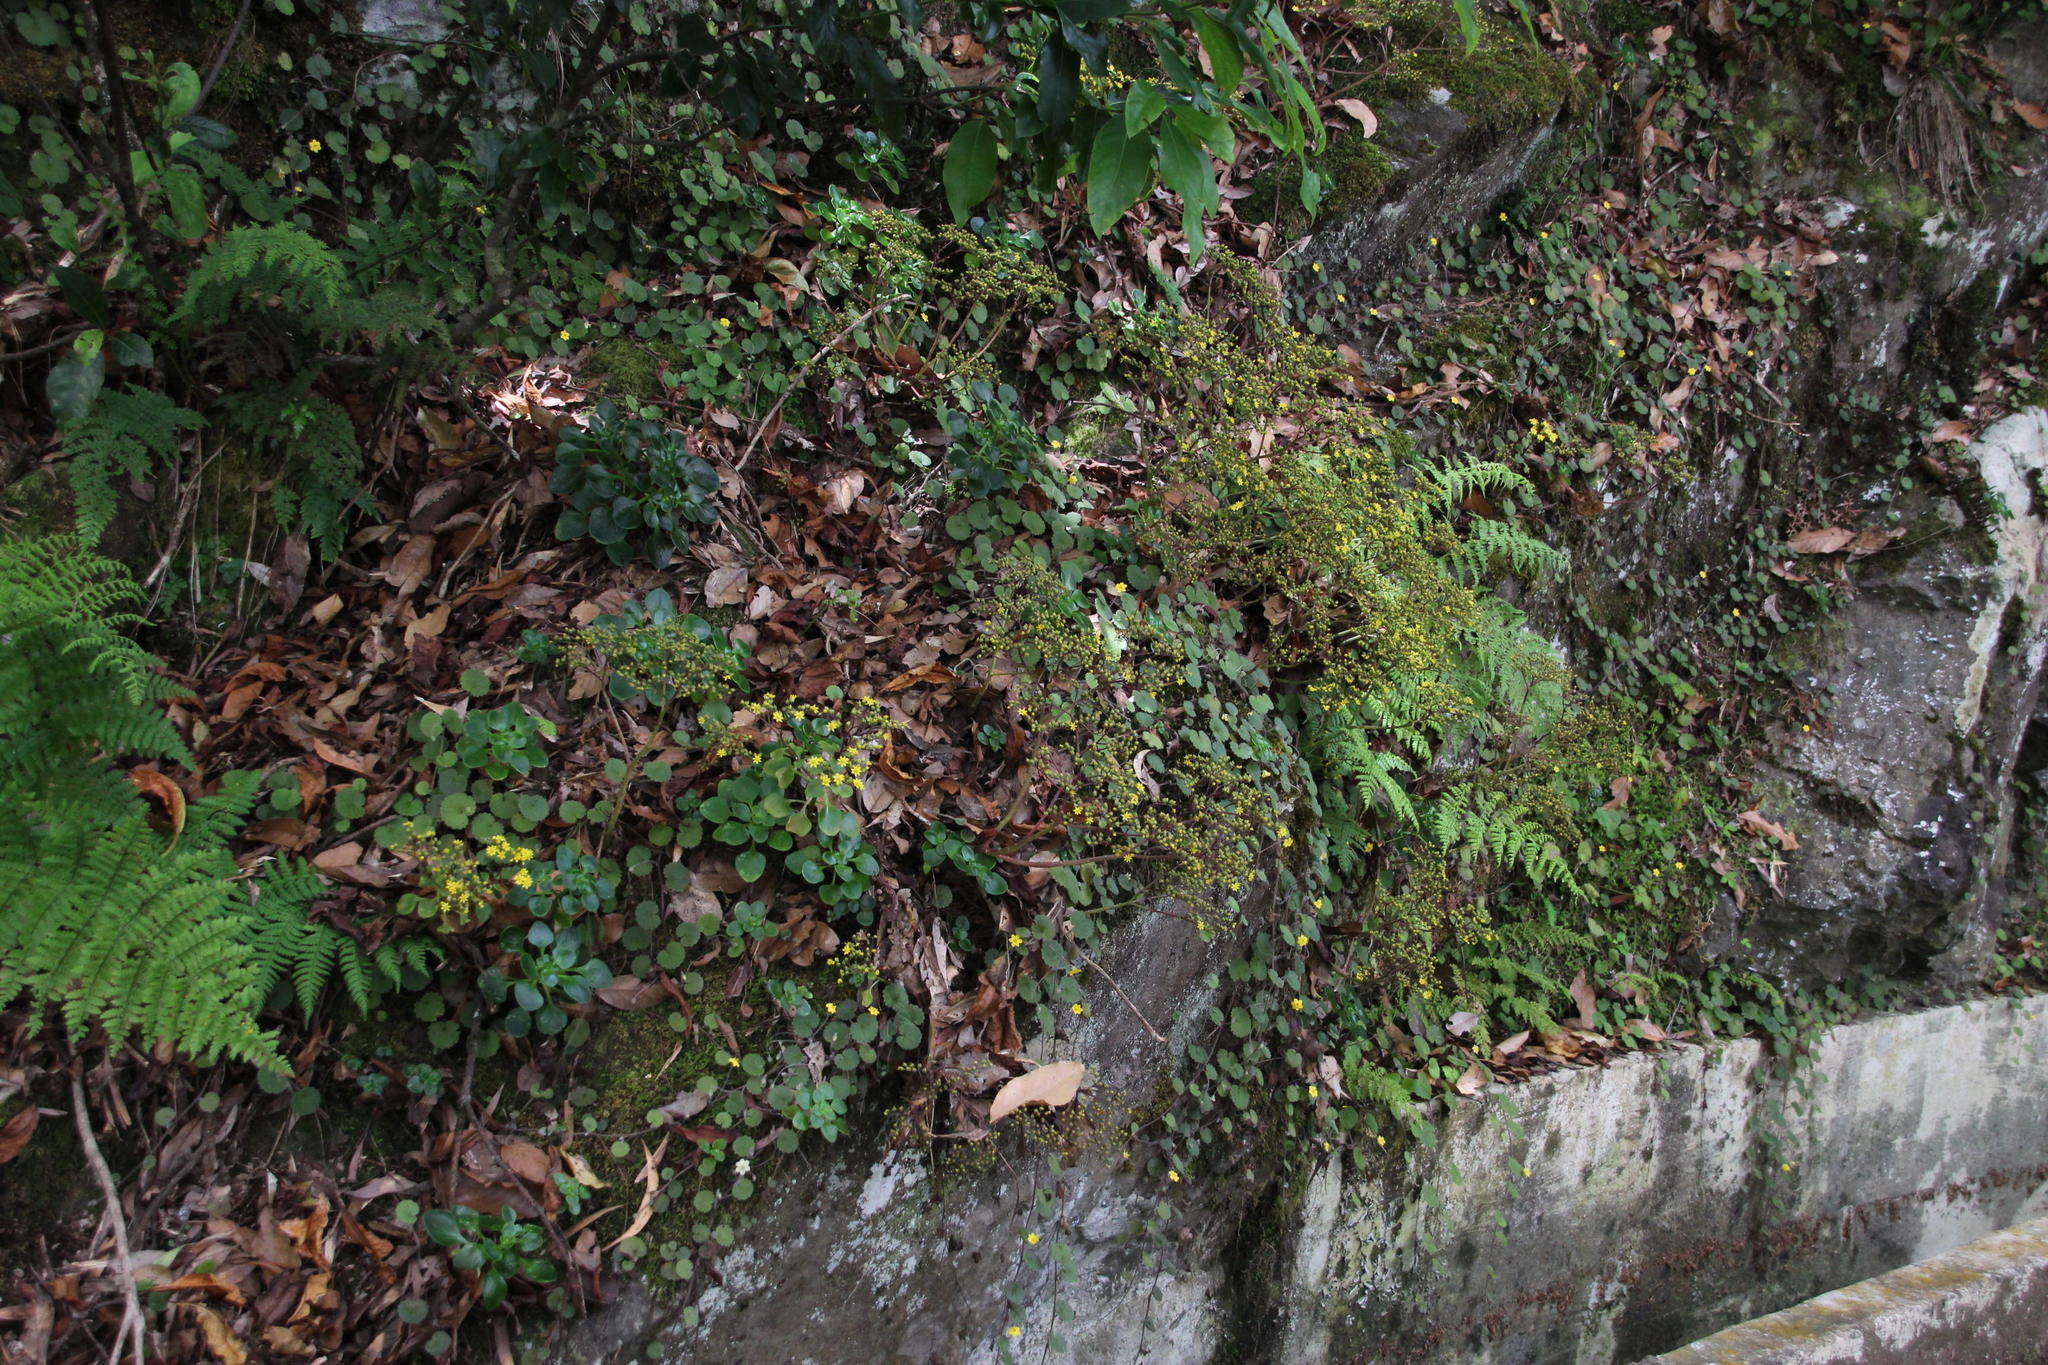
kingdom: Plantae
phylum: Tracheophyta
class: Magnoliopsida
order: Saxifragales
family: Crassulaceae
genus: Aichryson
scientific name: Aichryson divaricatum
